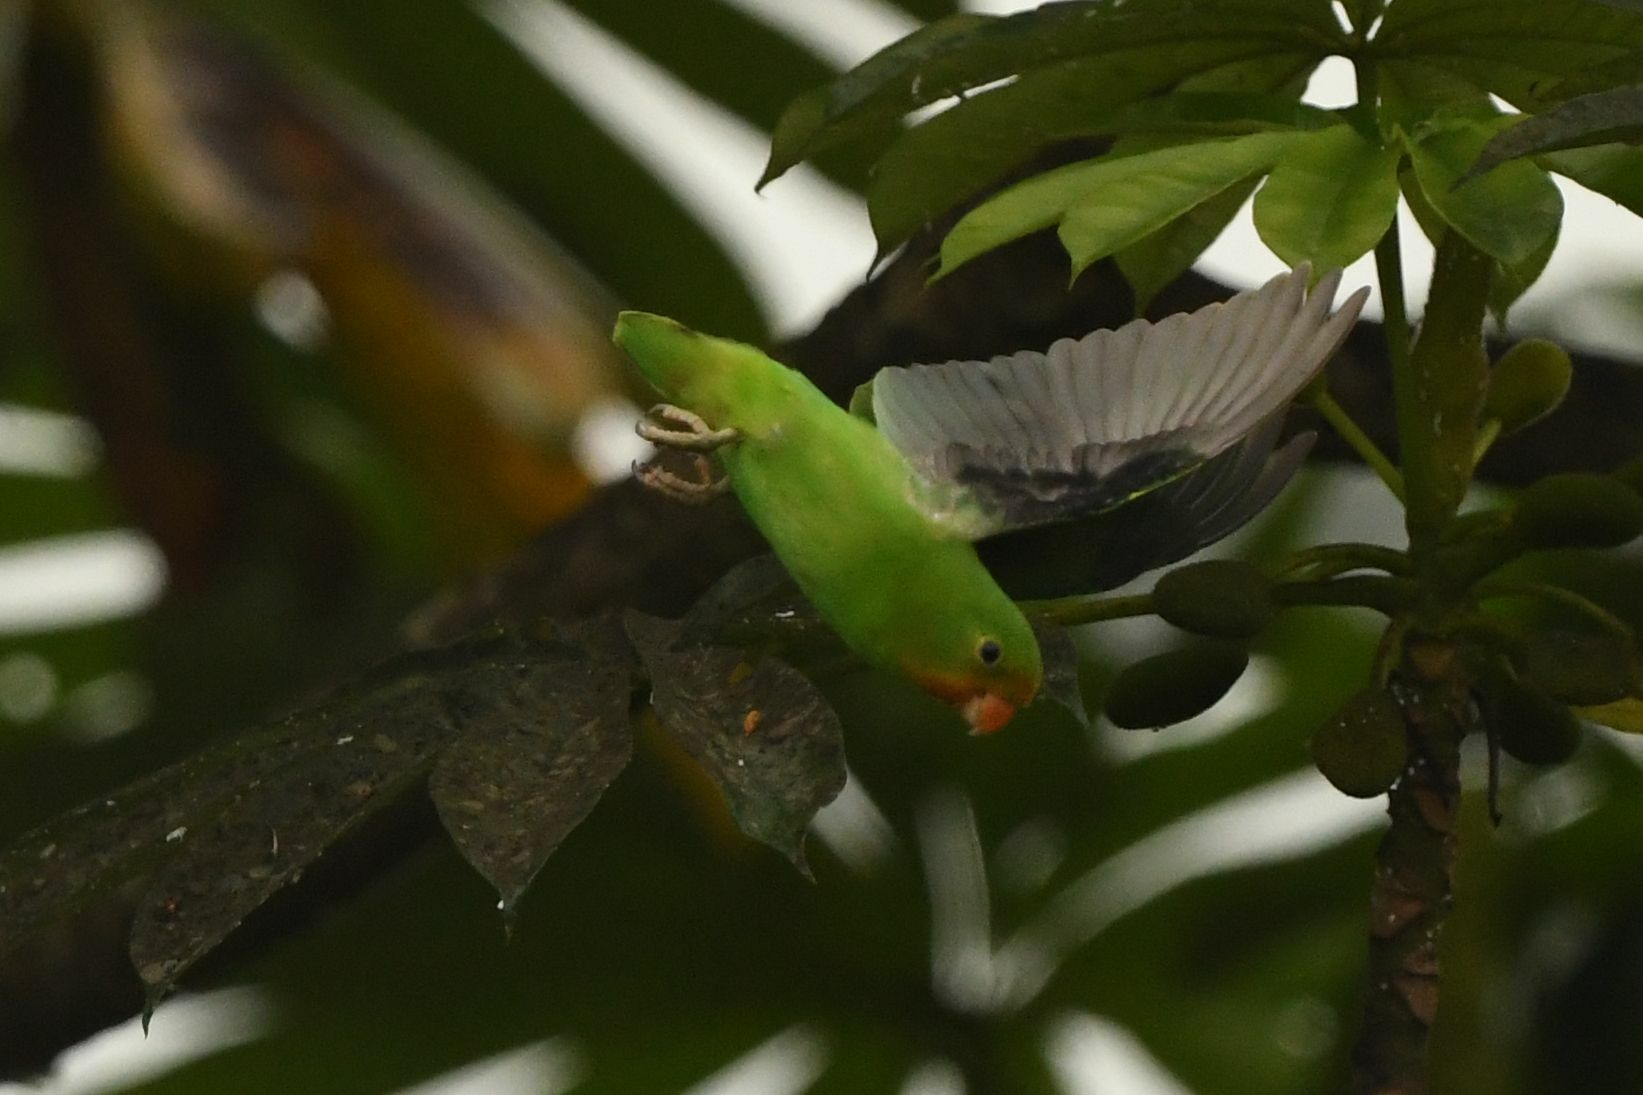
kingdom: Animalia
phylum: Chordata
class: Aves
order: Psittaciformes
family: Psittacidae
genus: Agapornis
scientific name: Agapornis pullarius
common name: Red-headed lovebird
